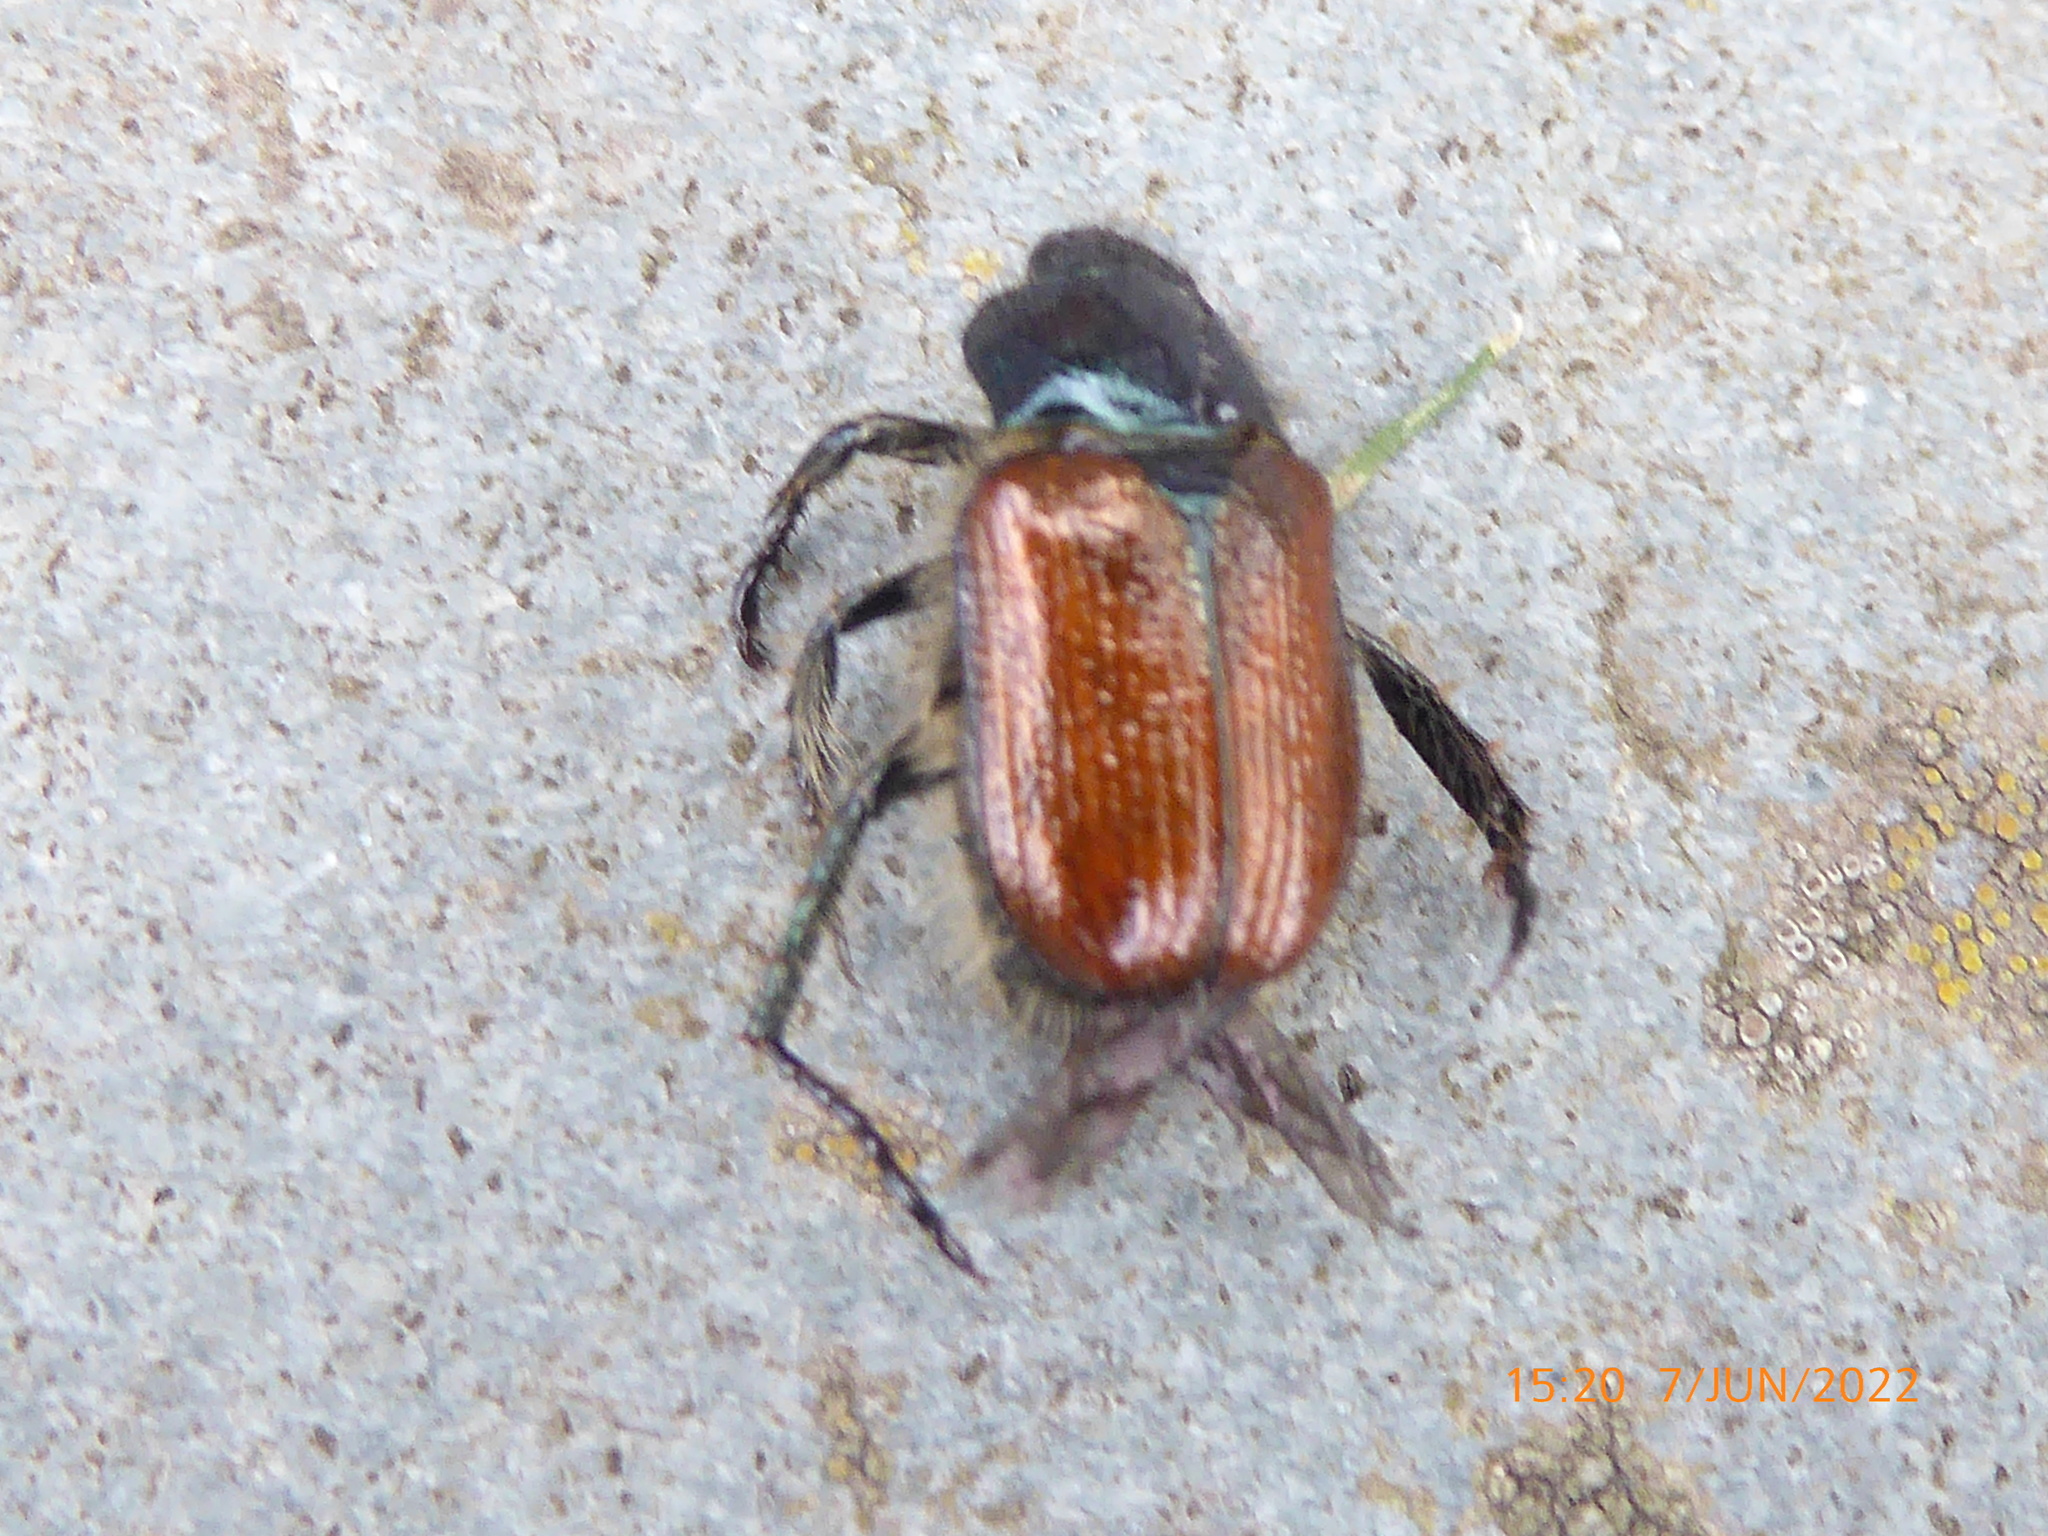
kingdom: Animalia
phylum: Arthropoda
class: Insecta
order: Coleoptera
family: Scarabaeidae
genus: Phyllopertha
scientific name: Phyllopertha horticola
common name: Garden chafer
